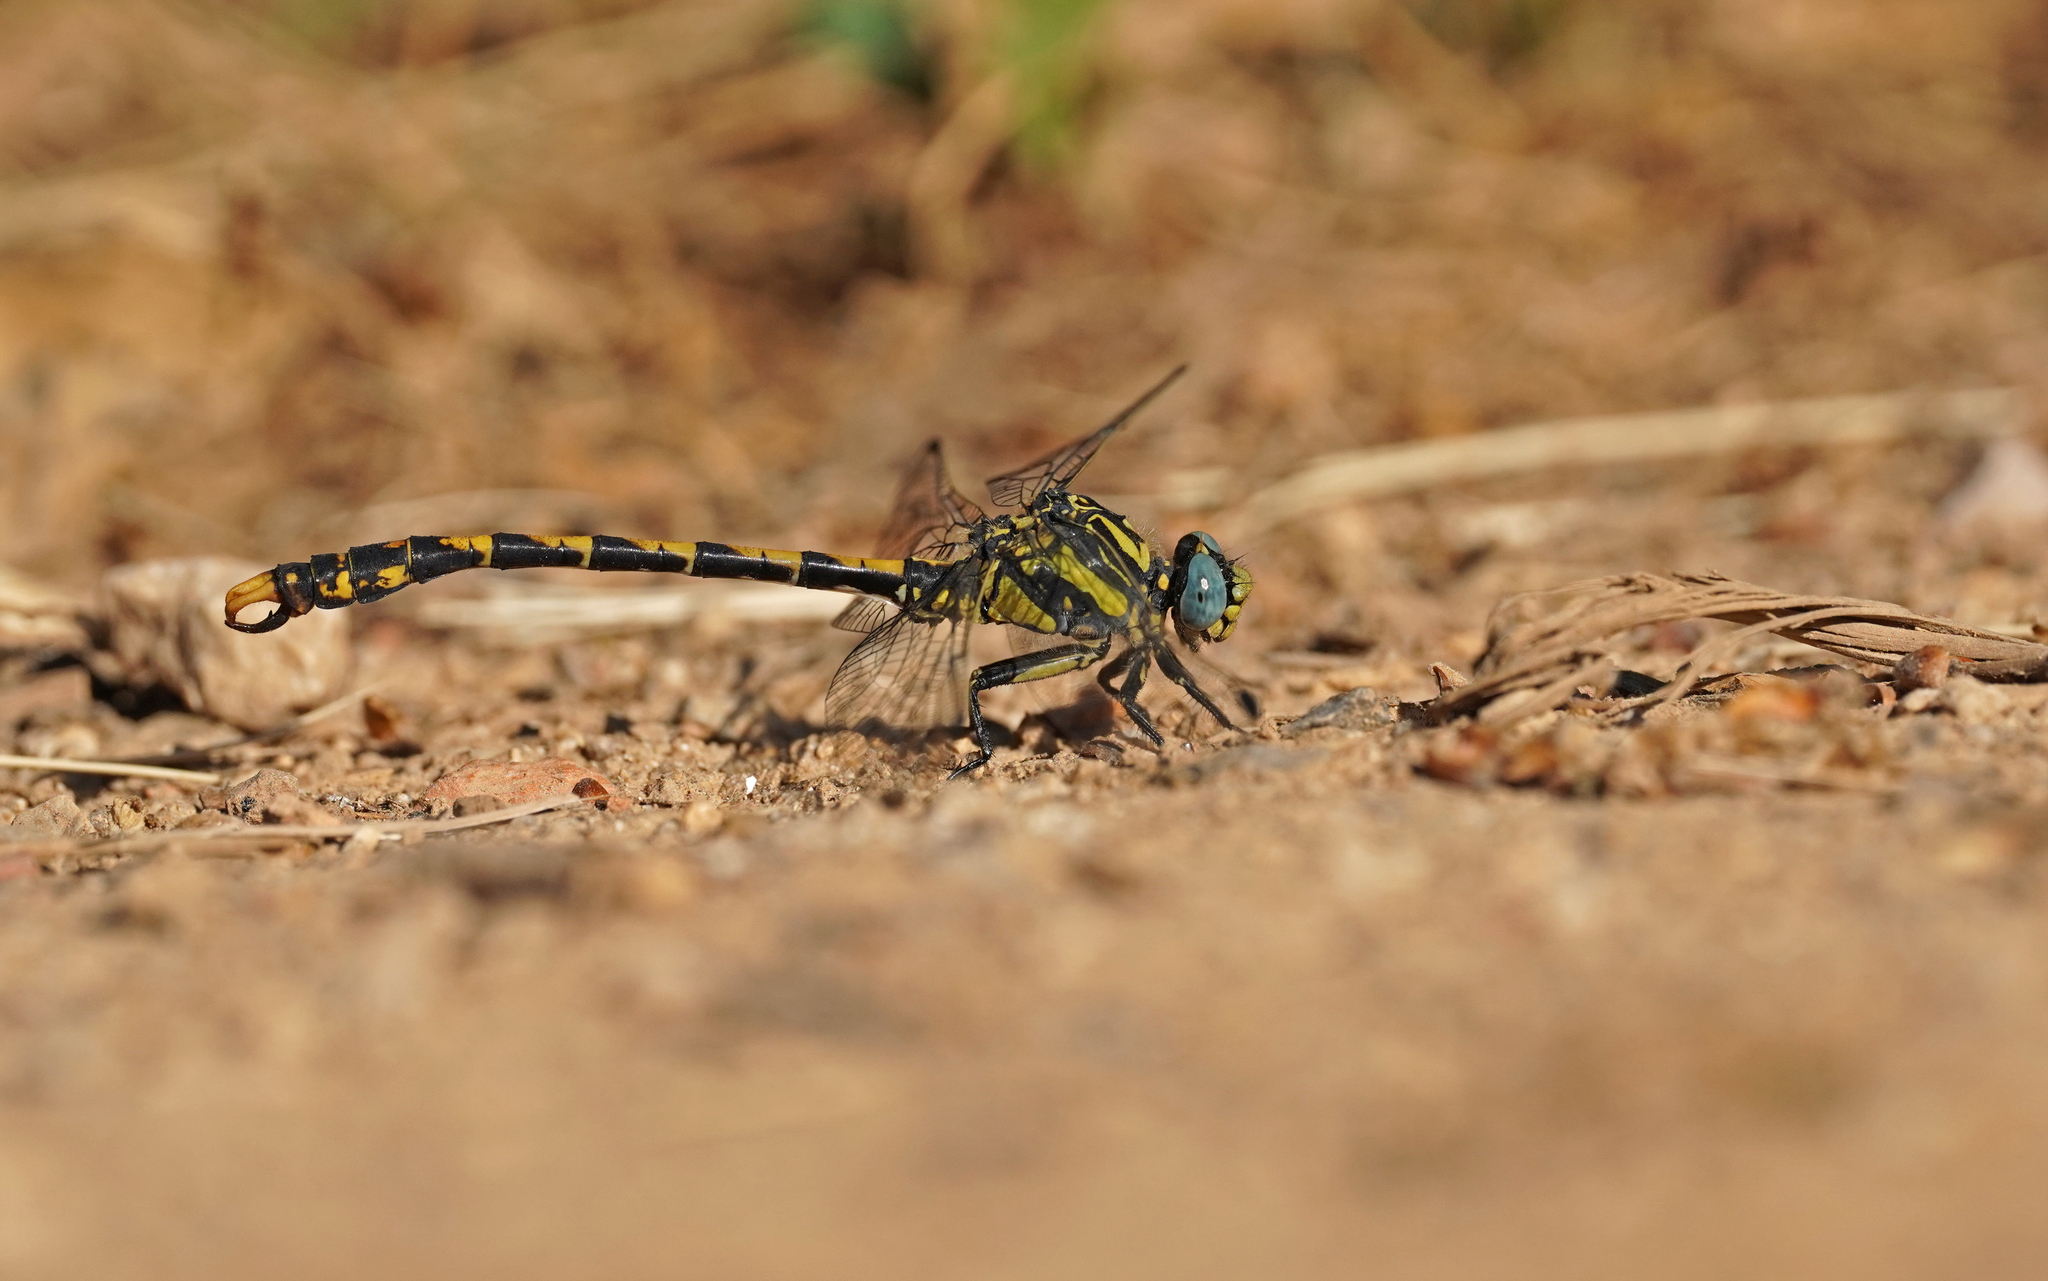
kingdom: Animalia
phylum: Arthropoda
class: Insecta
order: Odonata
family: Gomphidae
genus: Onychogomphus
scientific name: Onychogomphus uncatus
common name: Large pincertail
